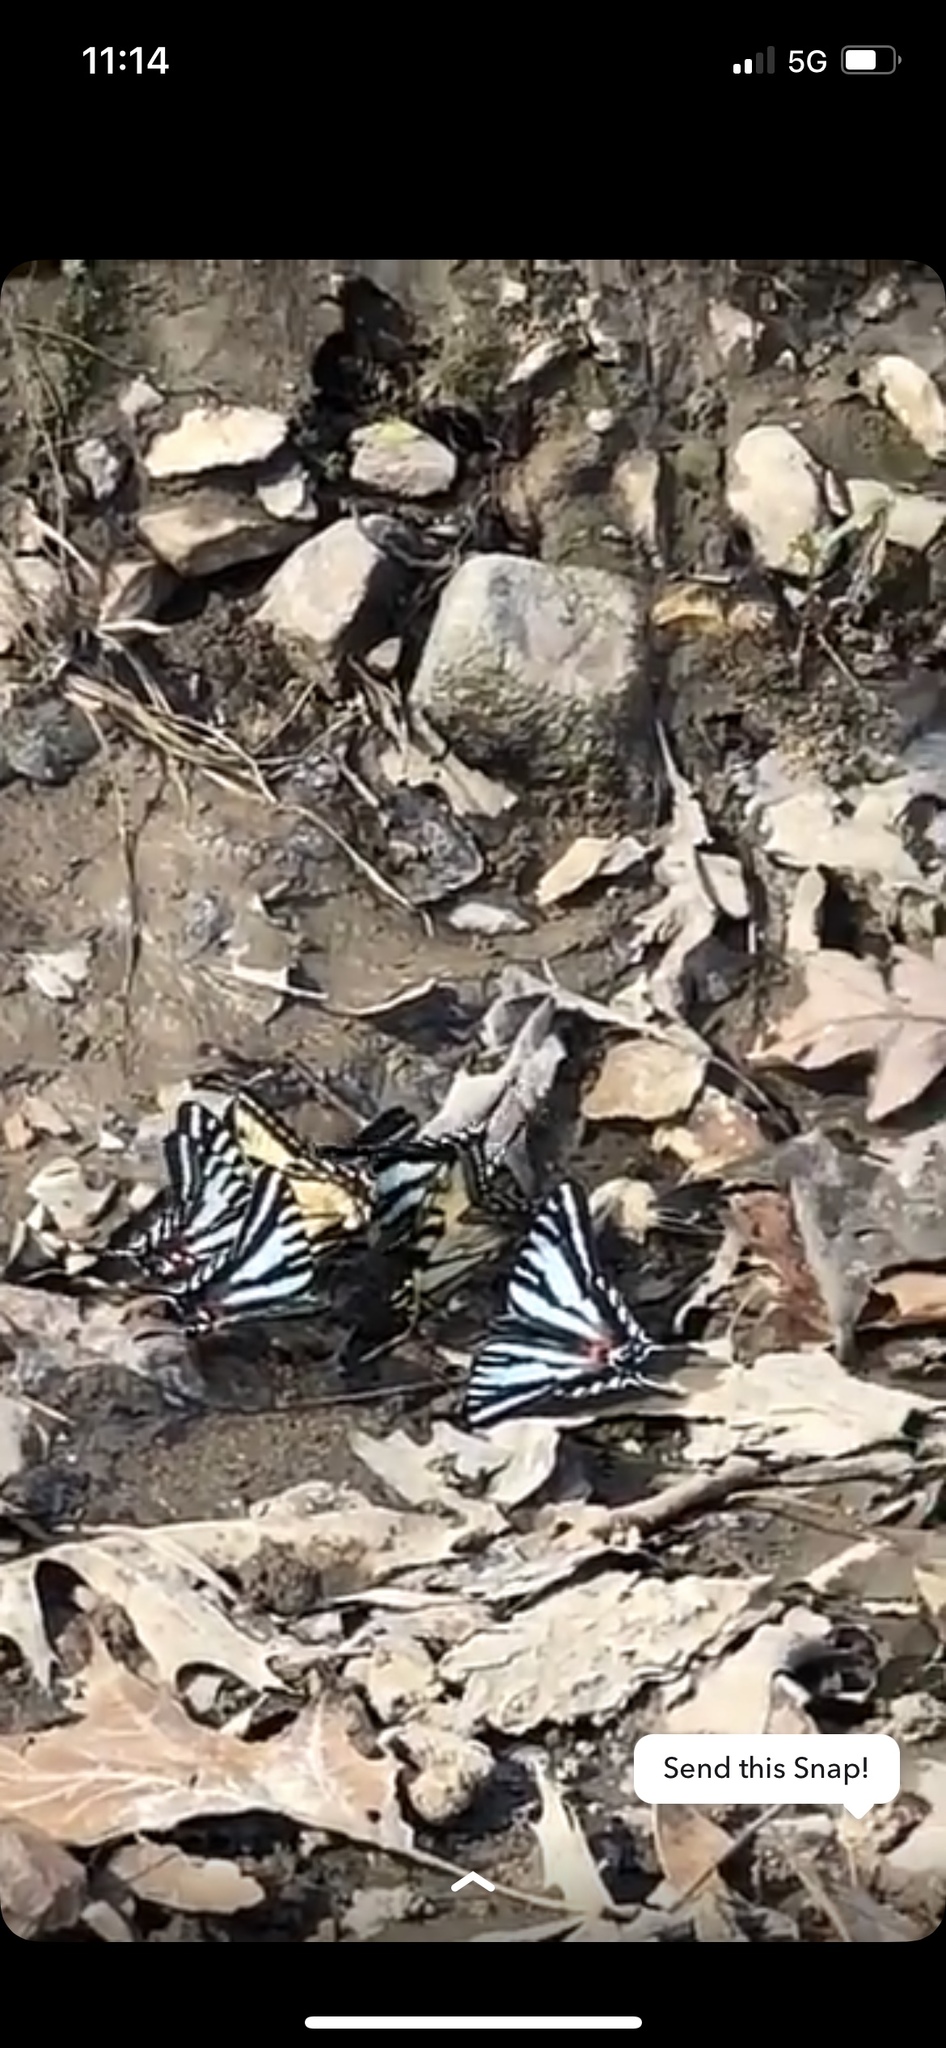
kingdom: Animalia
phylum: Arthropoda
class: Insecta
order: Lepidoptera
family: Papilionidae
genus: Protographium
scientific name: Protographium marcellus
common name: Zebra swallowtail
